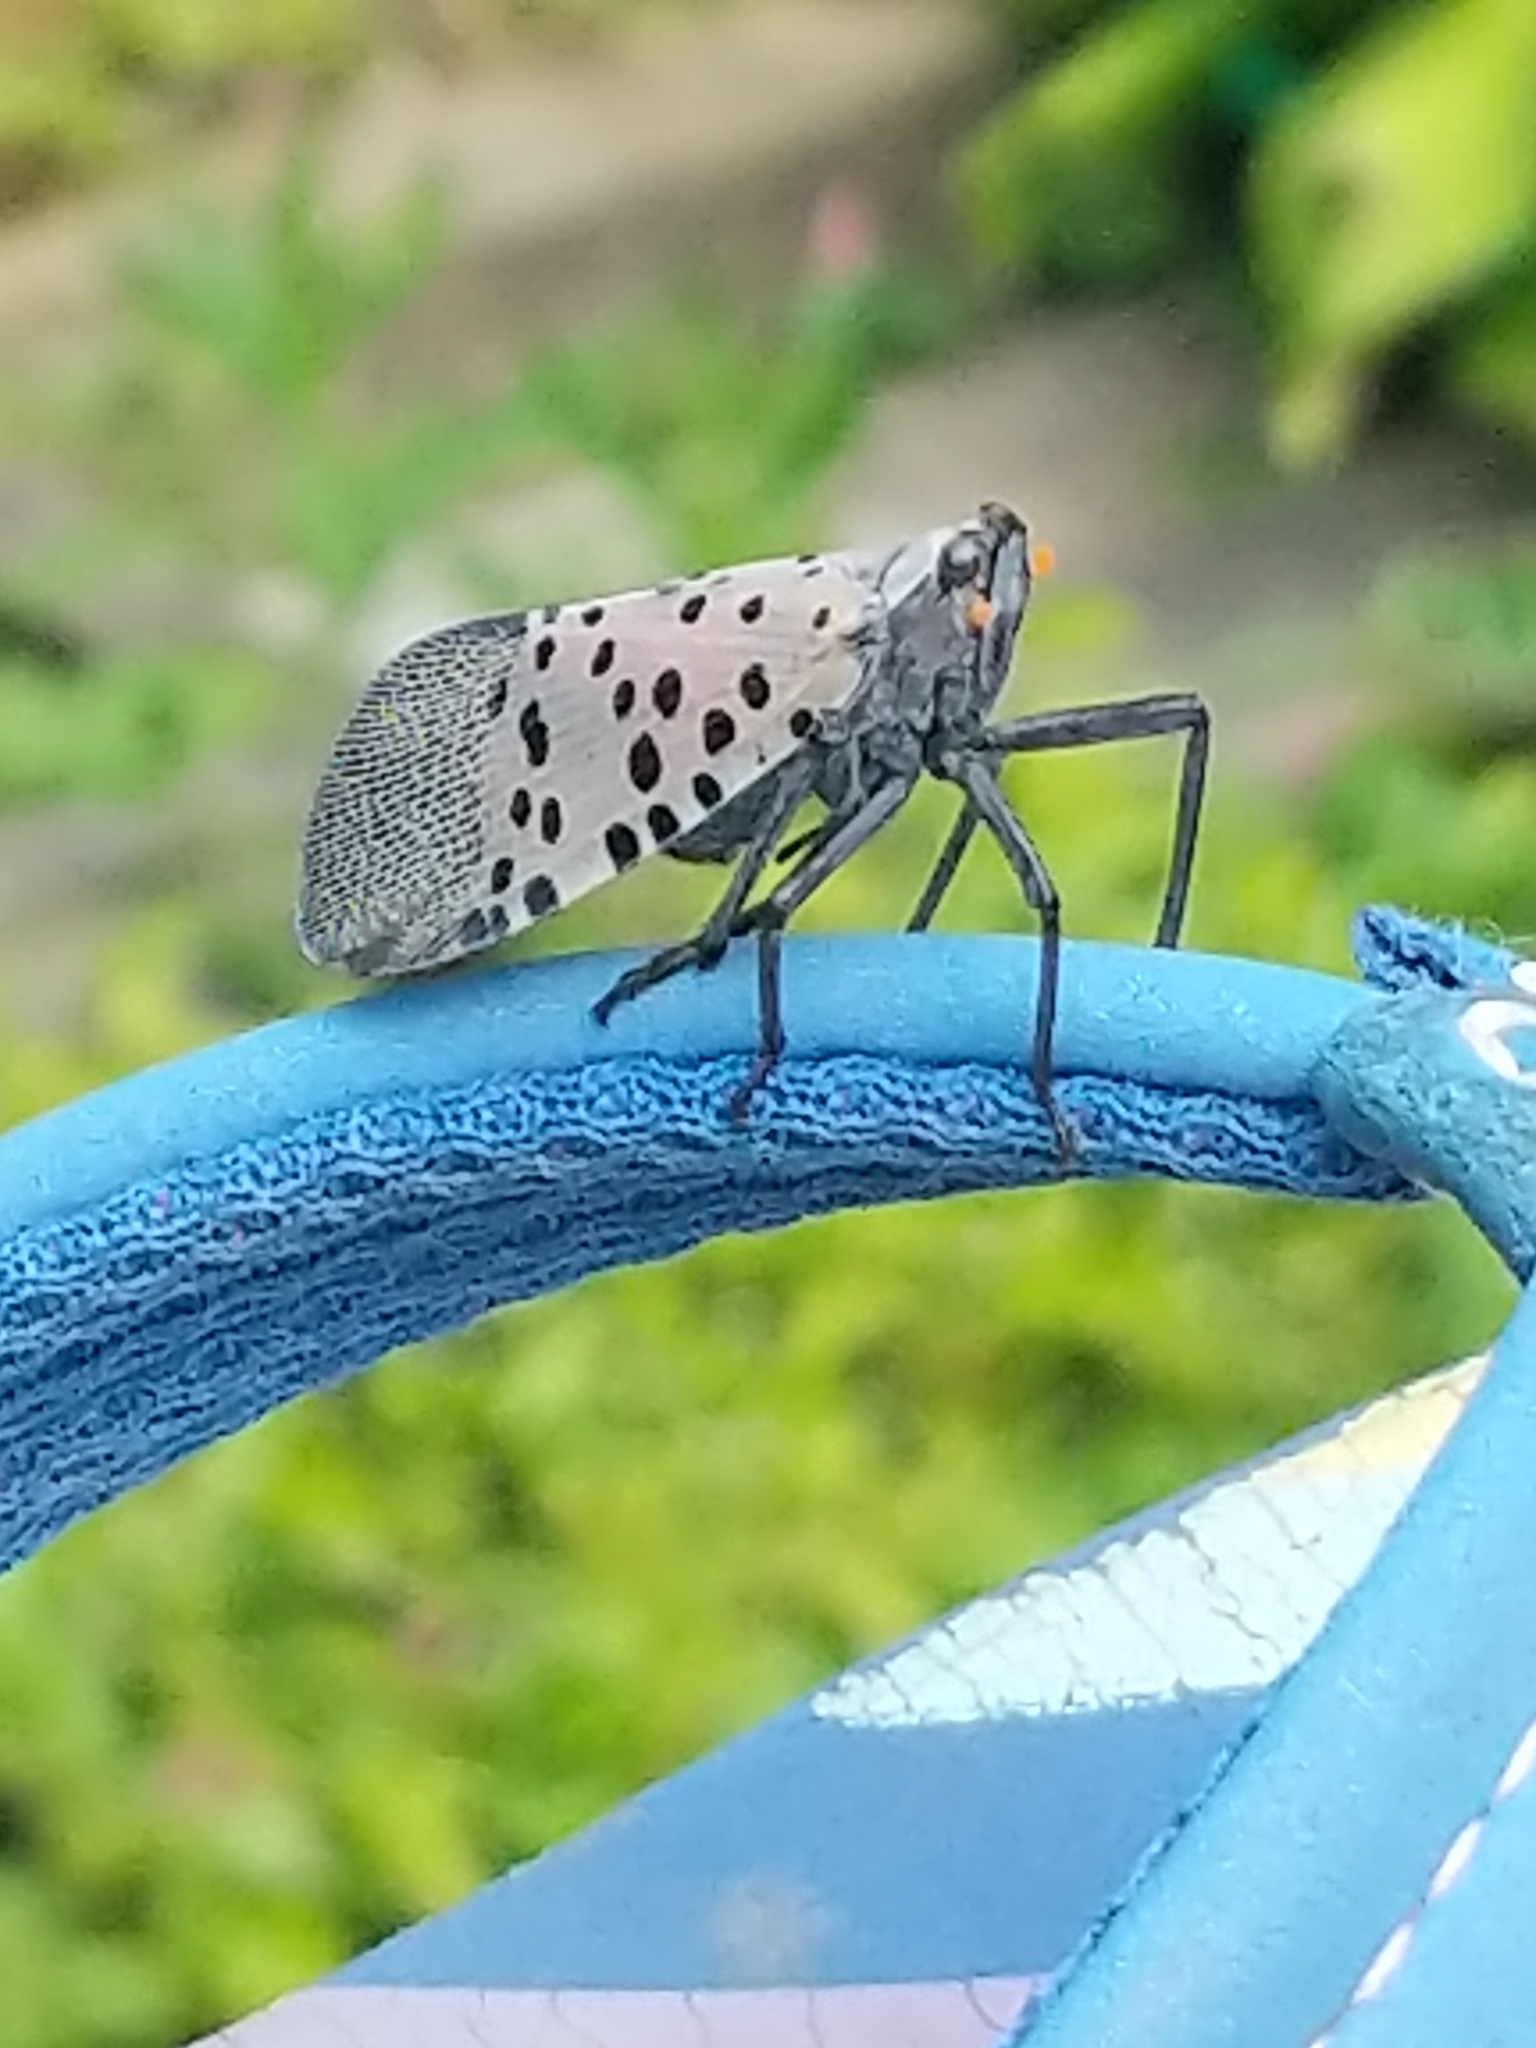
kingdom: Animalia
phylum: Arthropoda
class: Insecta
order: Hemiptera
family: Fulgoridae
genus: Lycorma
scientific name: Lycorma delicatula
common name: Spotted lanternfly
